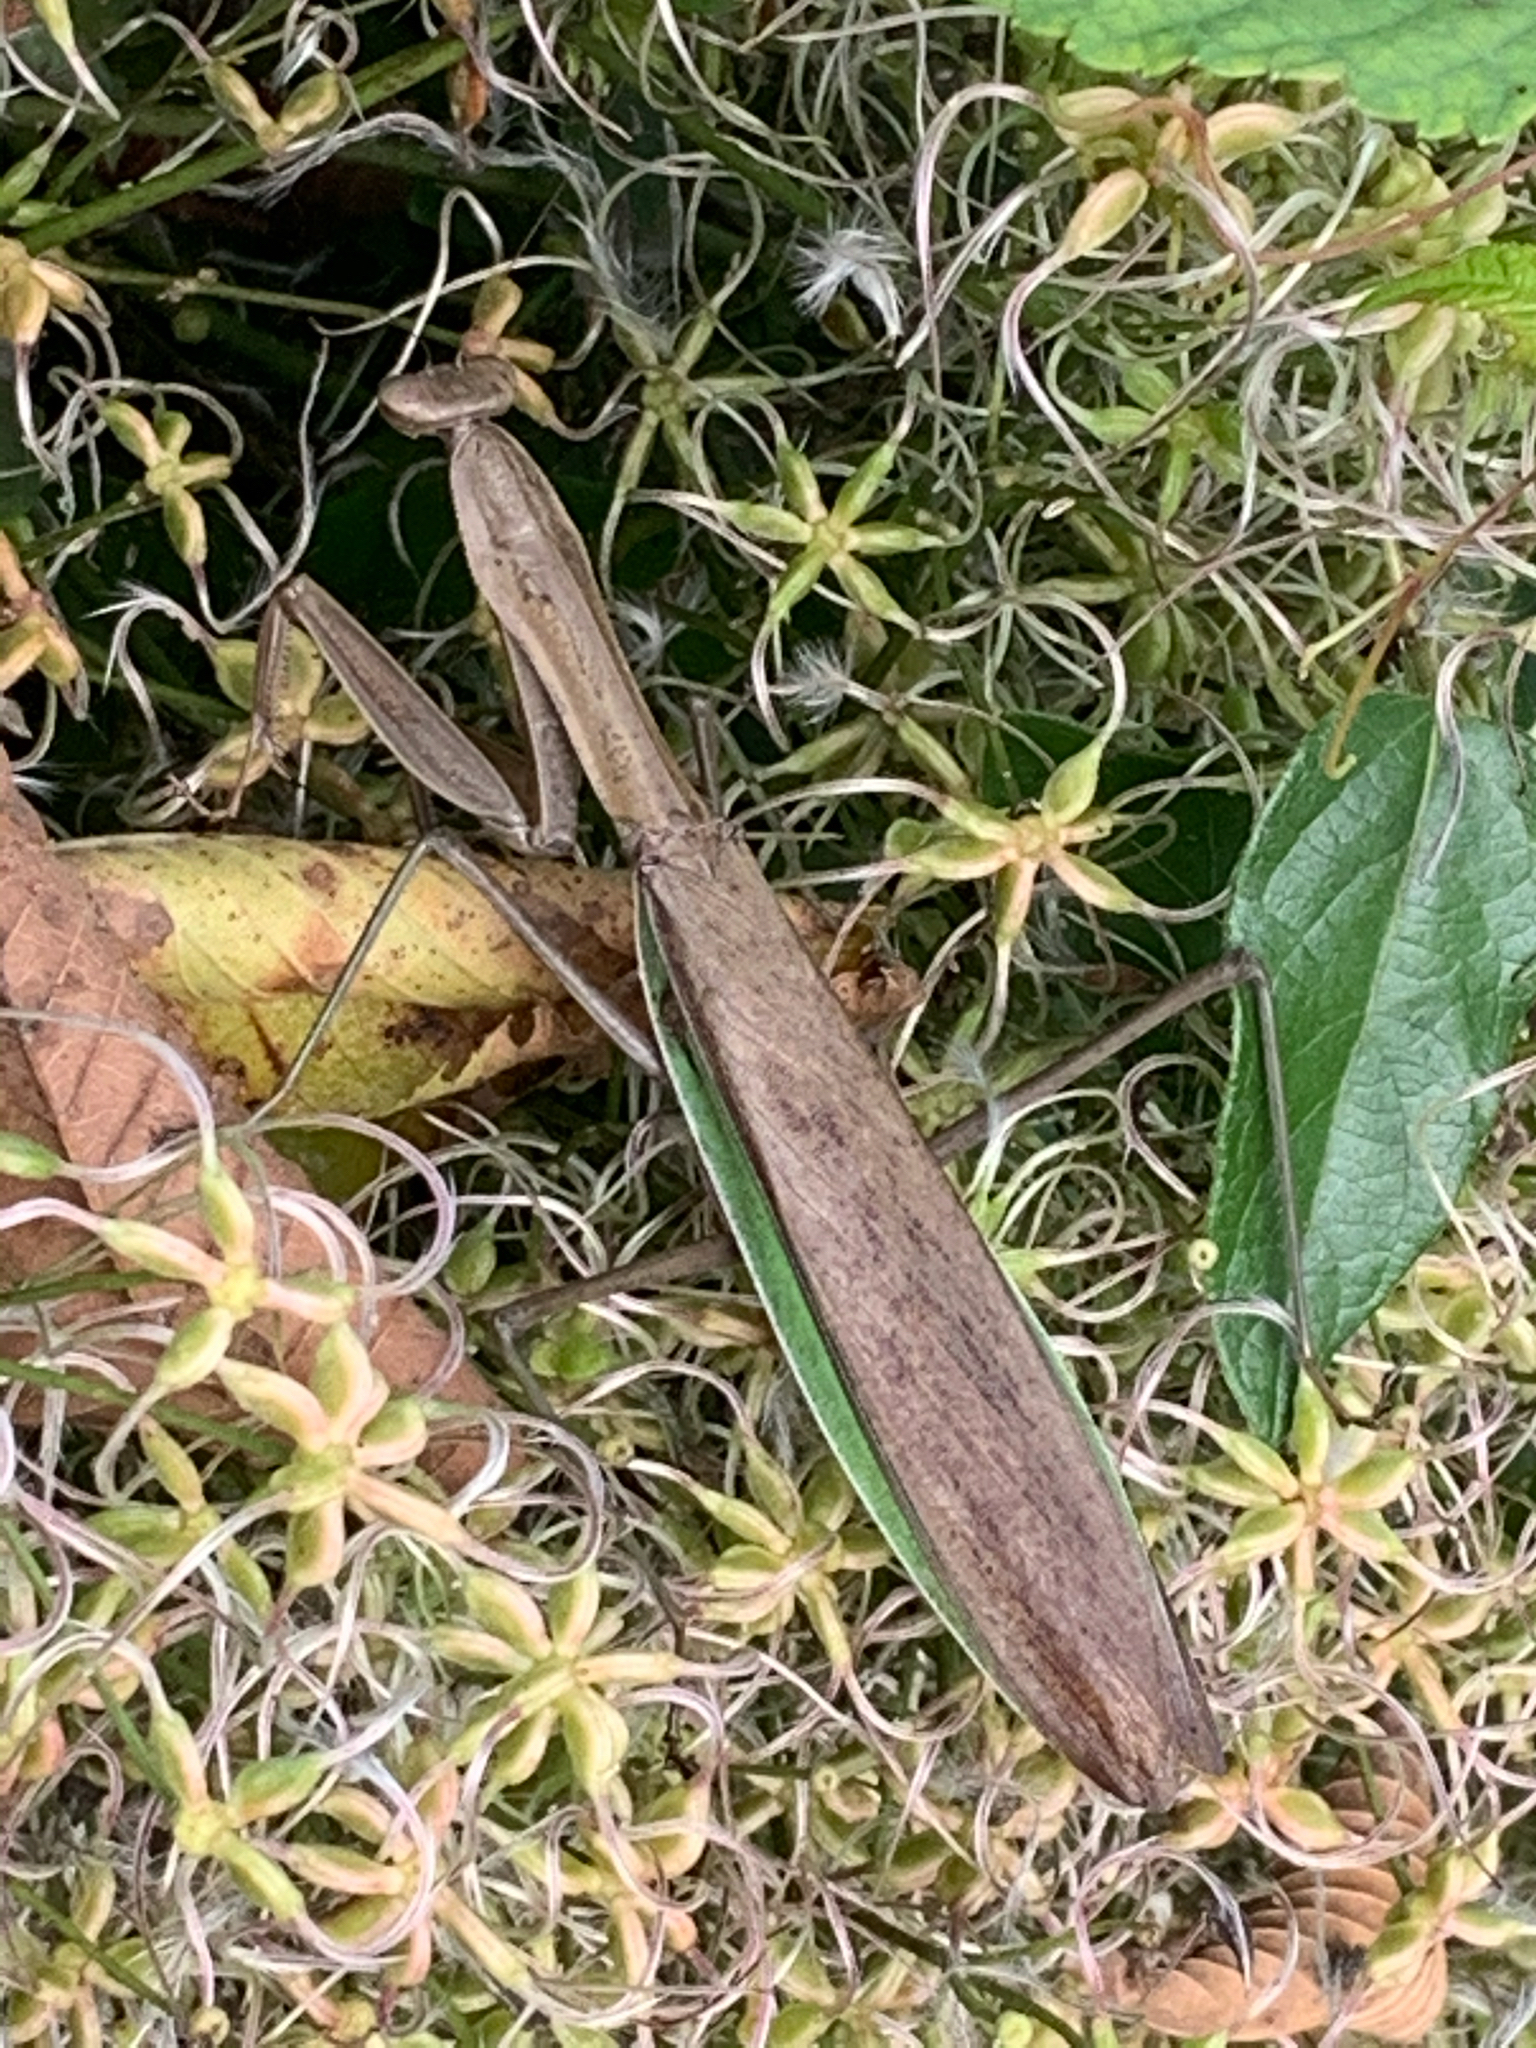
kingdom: Animalia
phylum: Arthropoda
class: Insecta
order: Mantodea
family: Mantidae
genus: Tenodera
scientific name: Tenodera sinensis
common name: Chinese mantis
